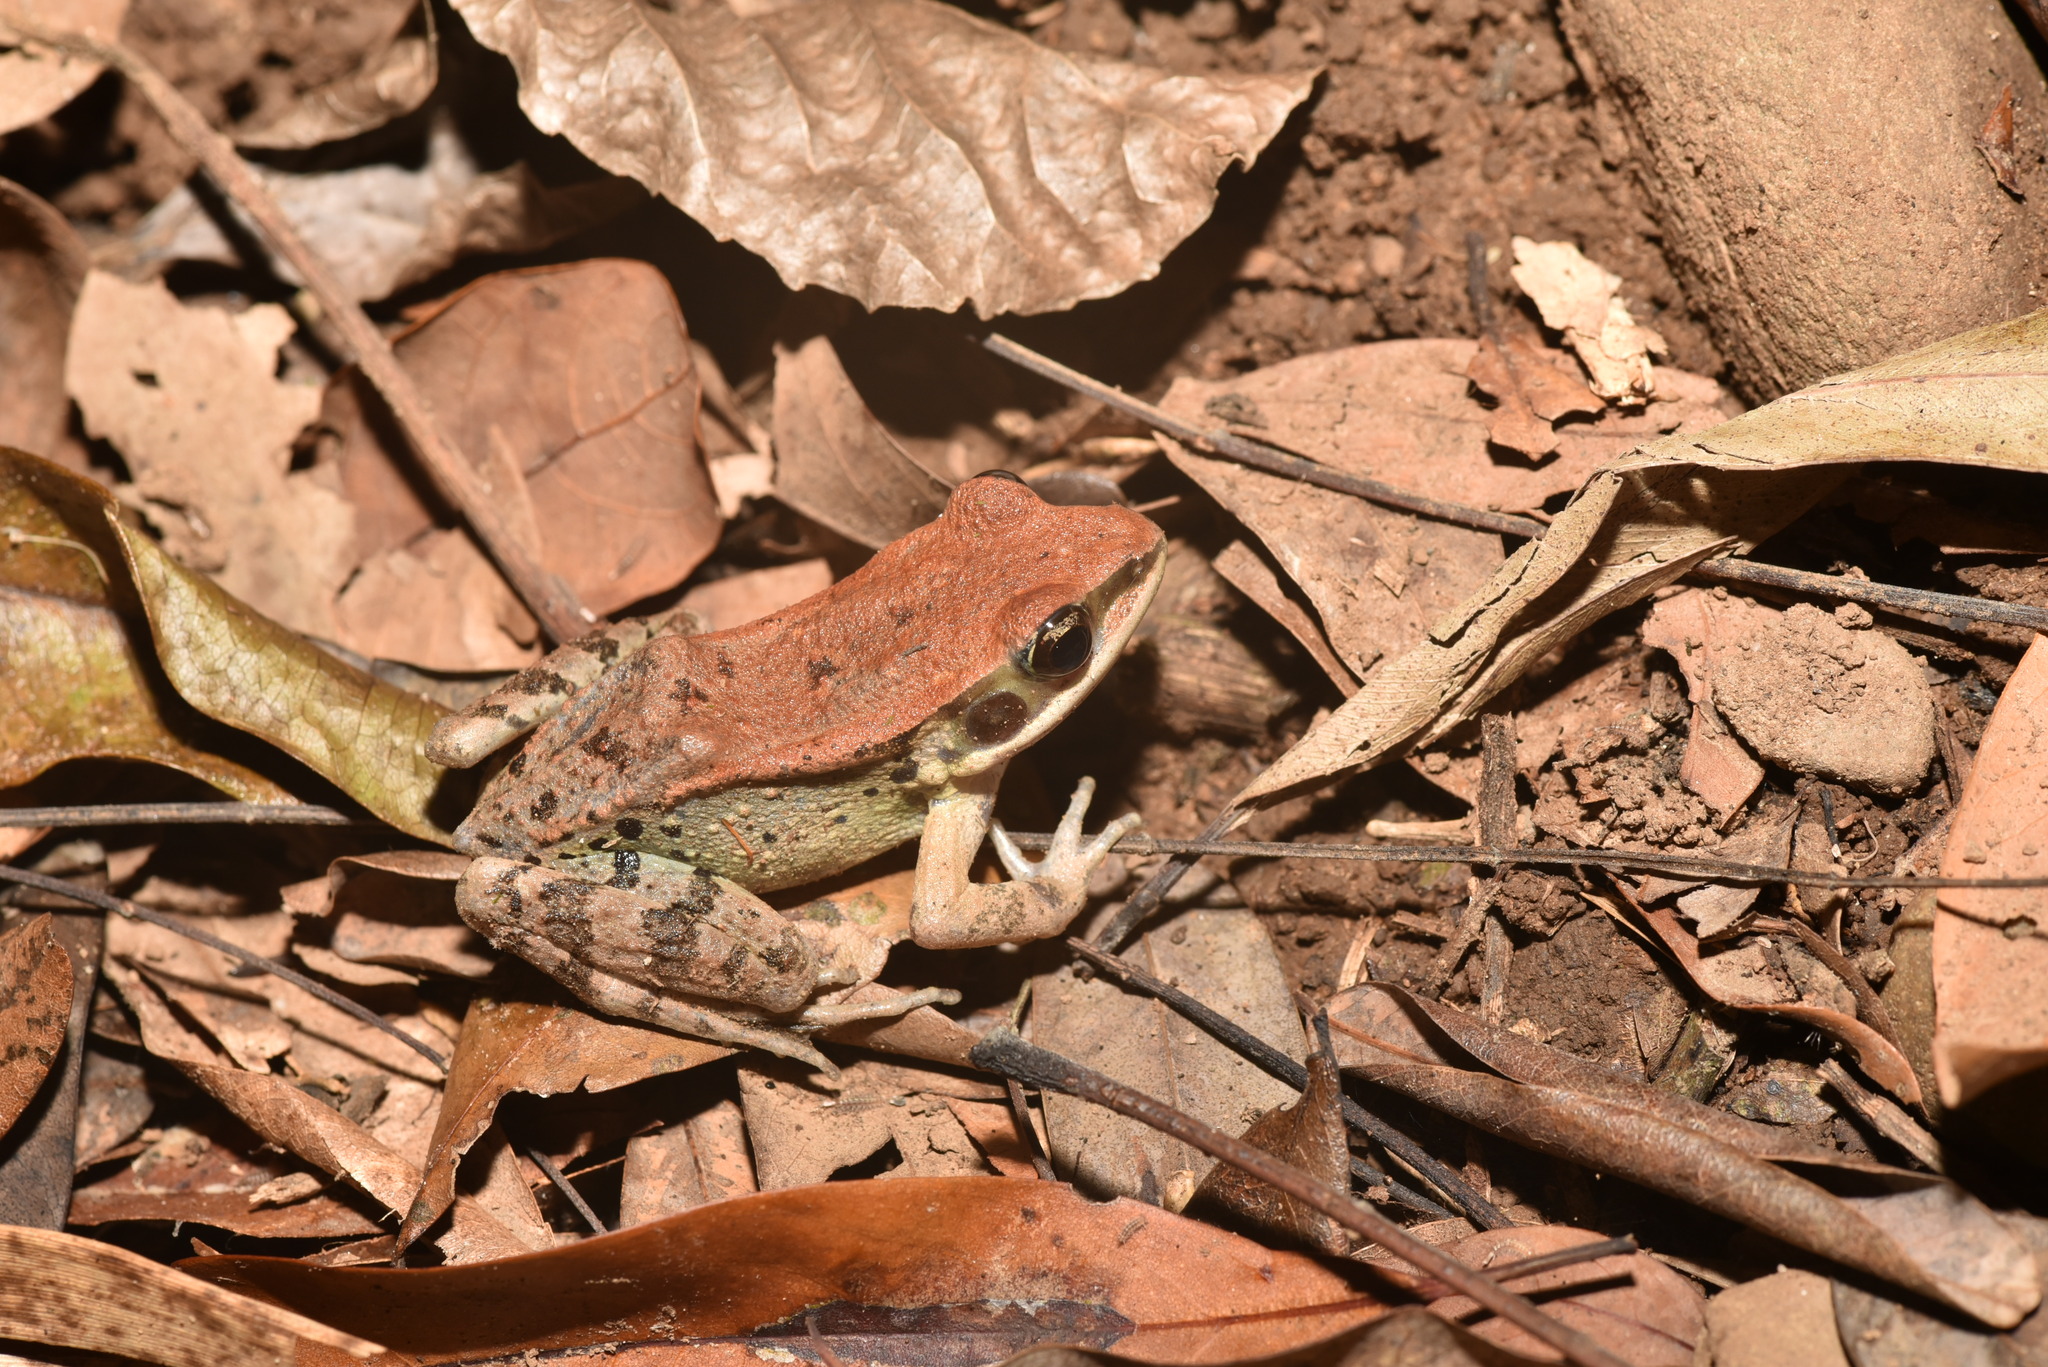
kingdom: Animalia
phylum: Chordata
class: Amphibia
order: Anura
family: Ranidae
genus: Hylarana
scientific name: Hylarana latouchii
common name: Broad-folded frog
